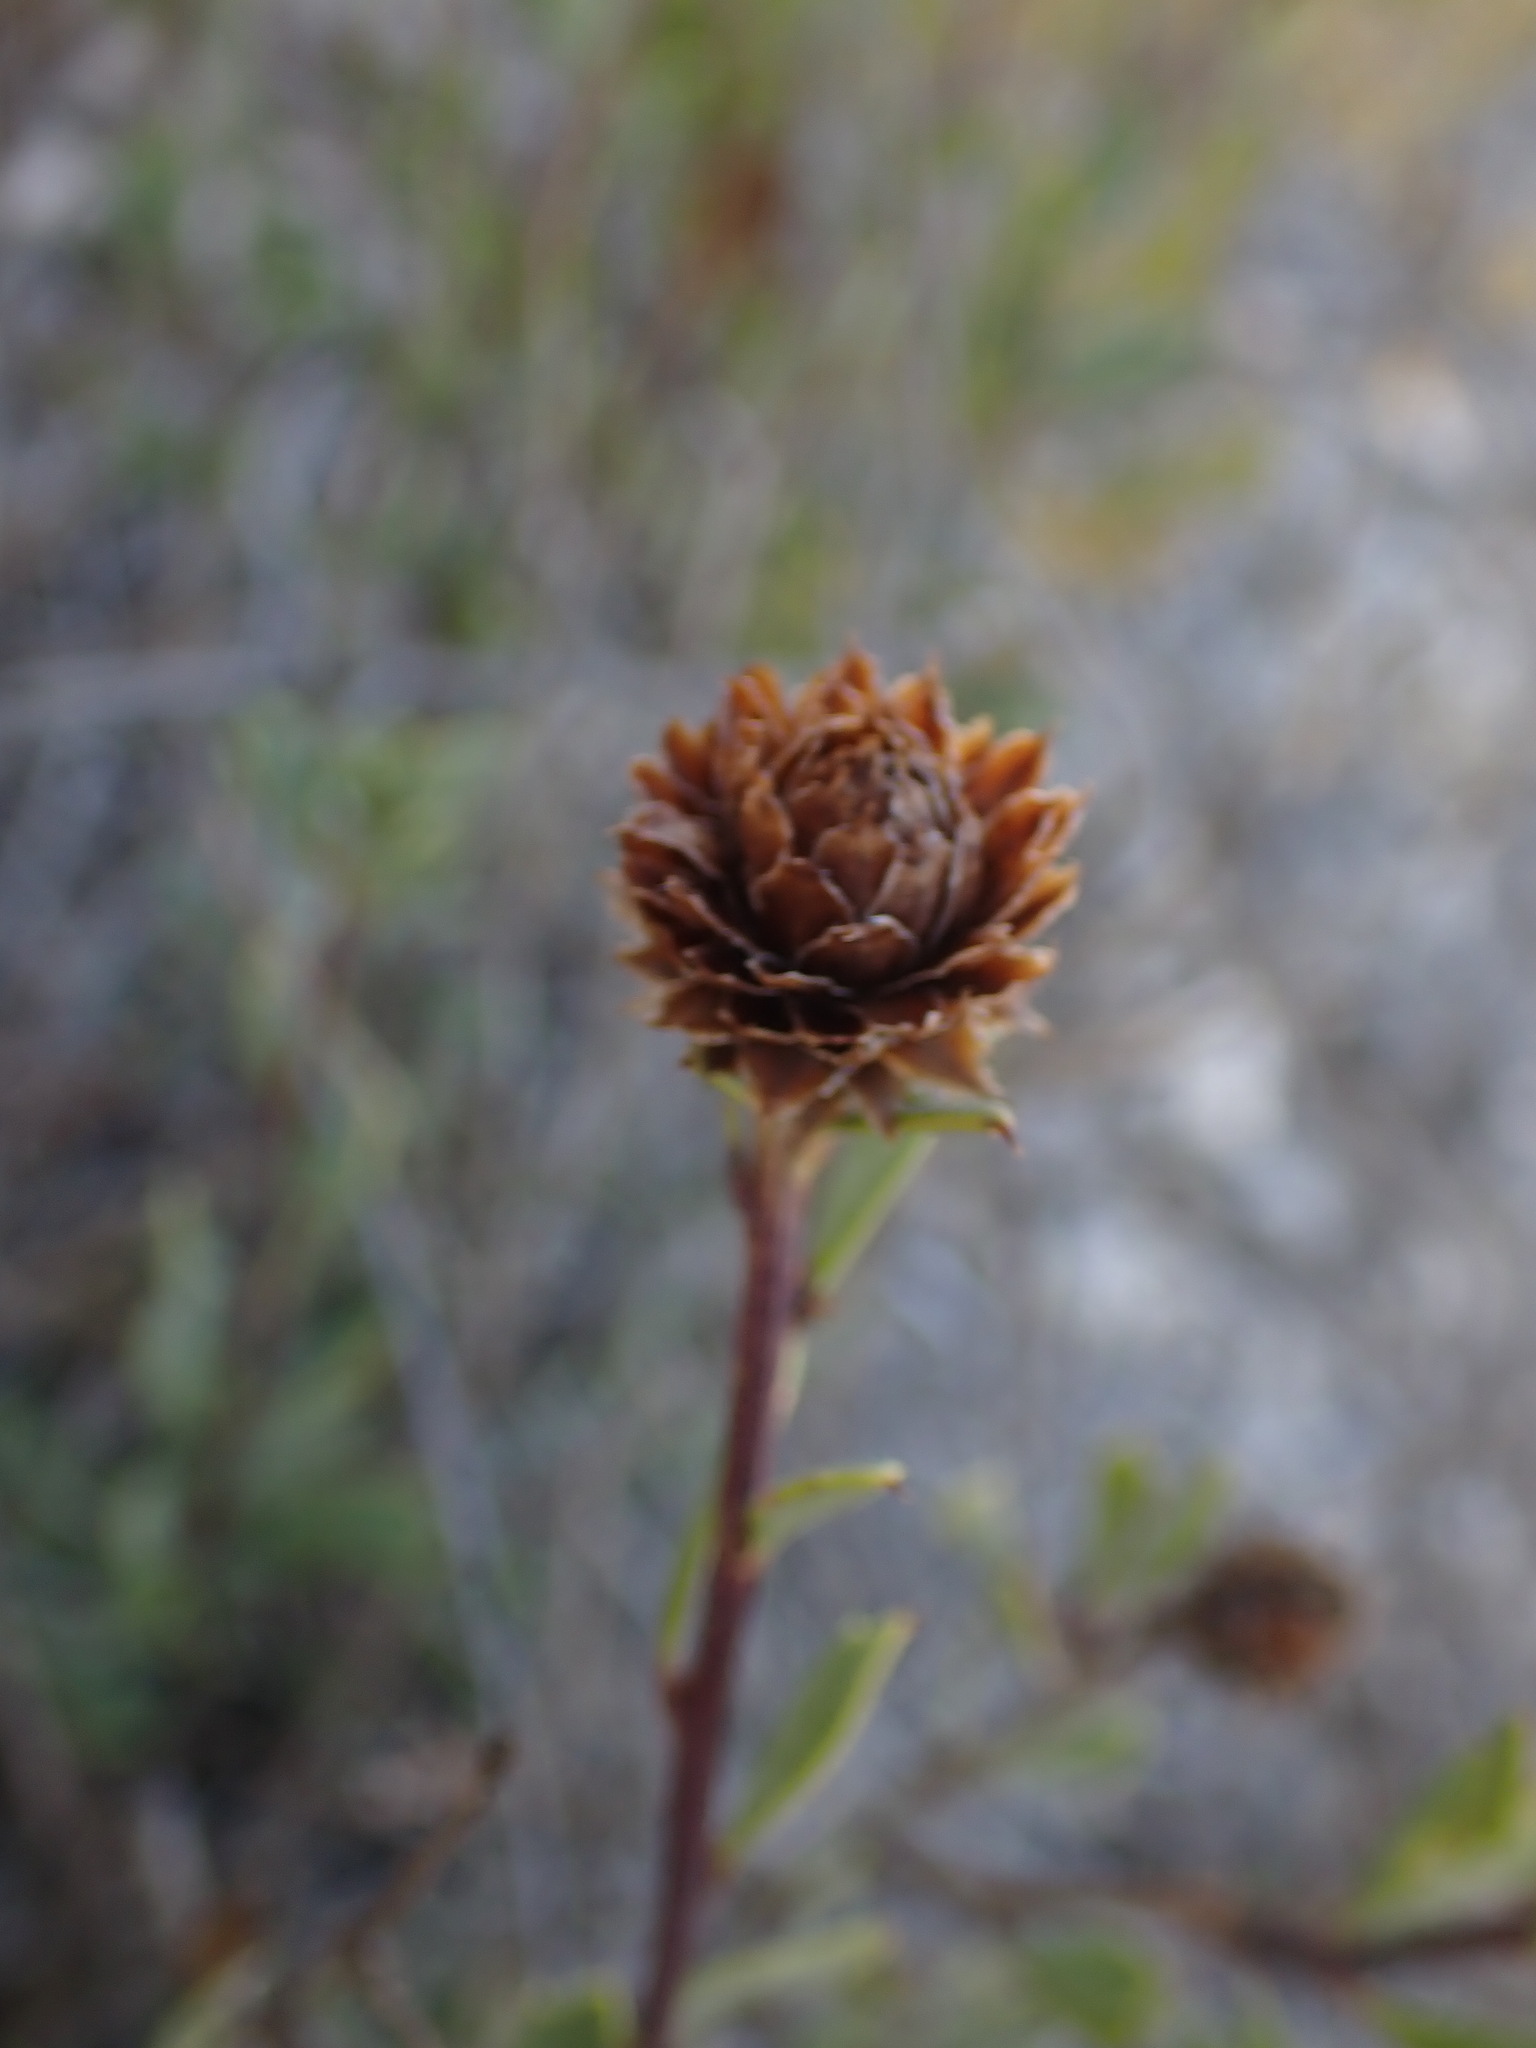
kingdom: Plantae
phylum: Tracheophyta
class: Magnoliopsida
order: Lamiales
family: Plantaginaceae
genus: Globularia
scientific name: Globularia alypum
